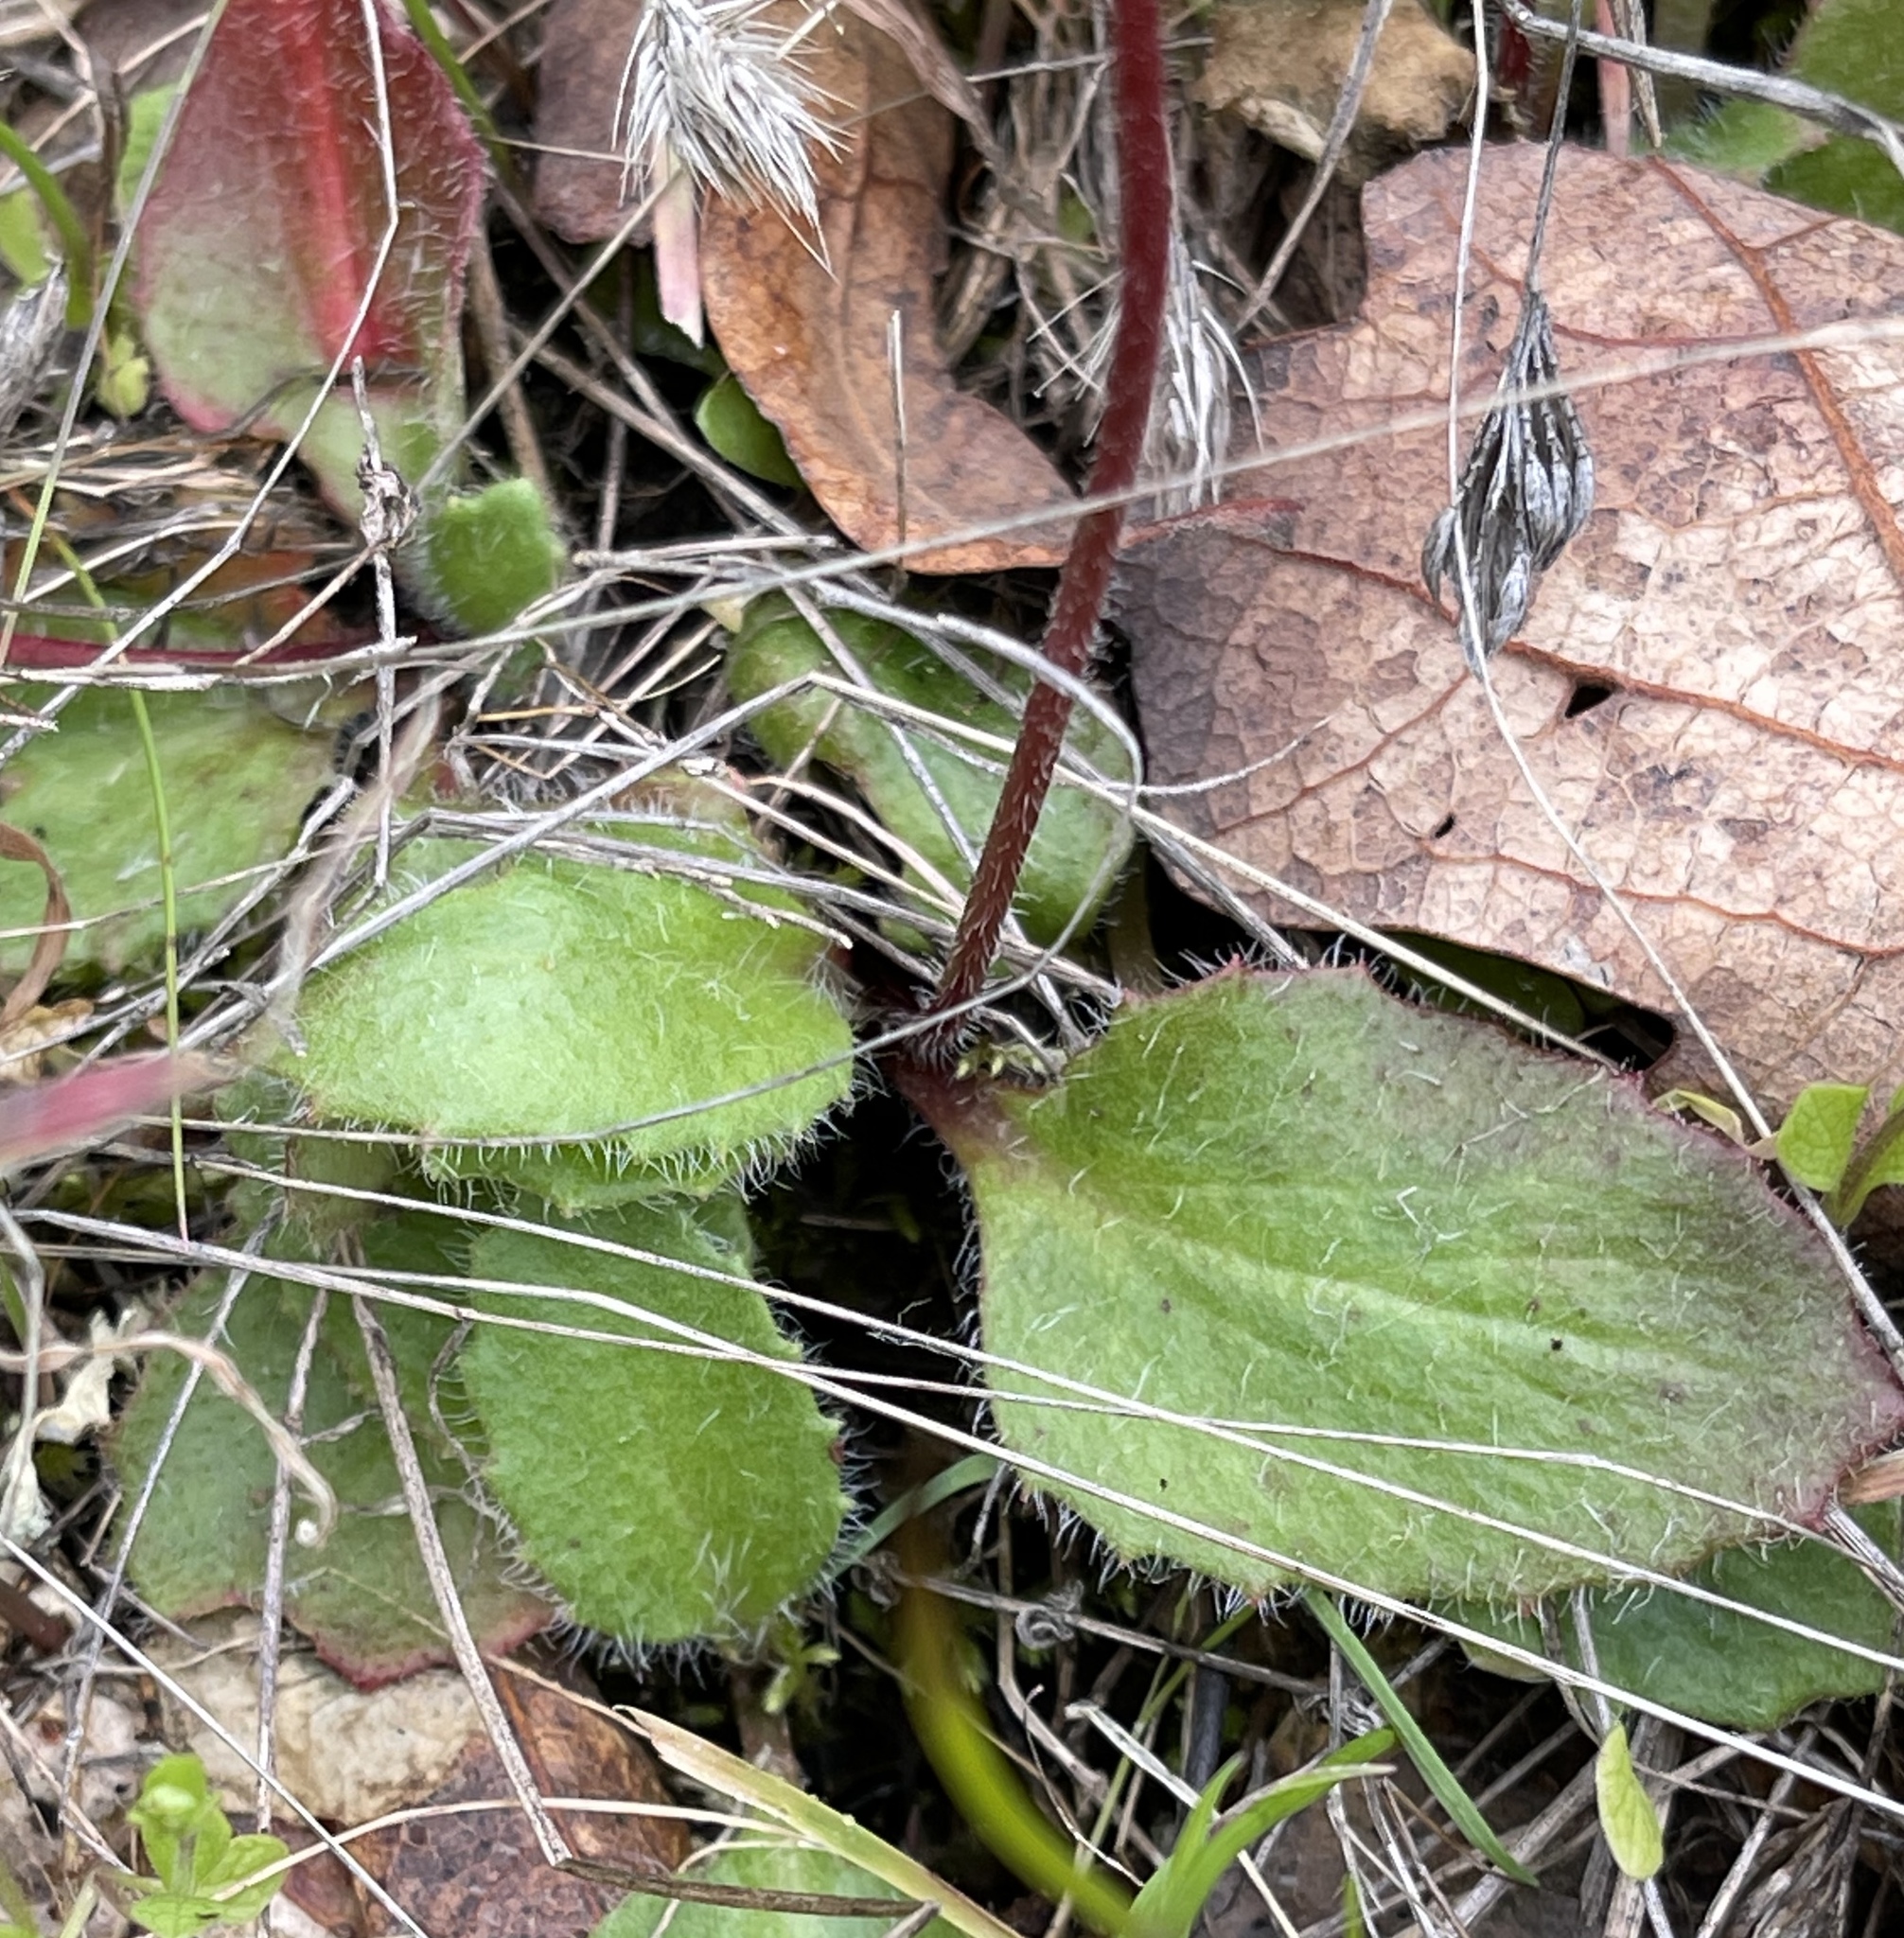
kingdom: Plantae
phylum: Tracheophyta
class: Magnoliopsida
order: Saxifragales
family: Saxifragaceae
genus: Micranthes
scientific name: Micranthes californica
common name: California saxifrage
